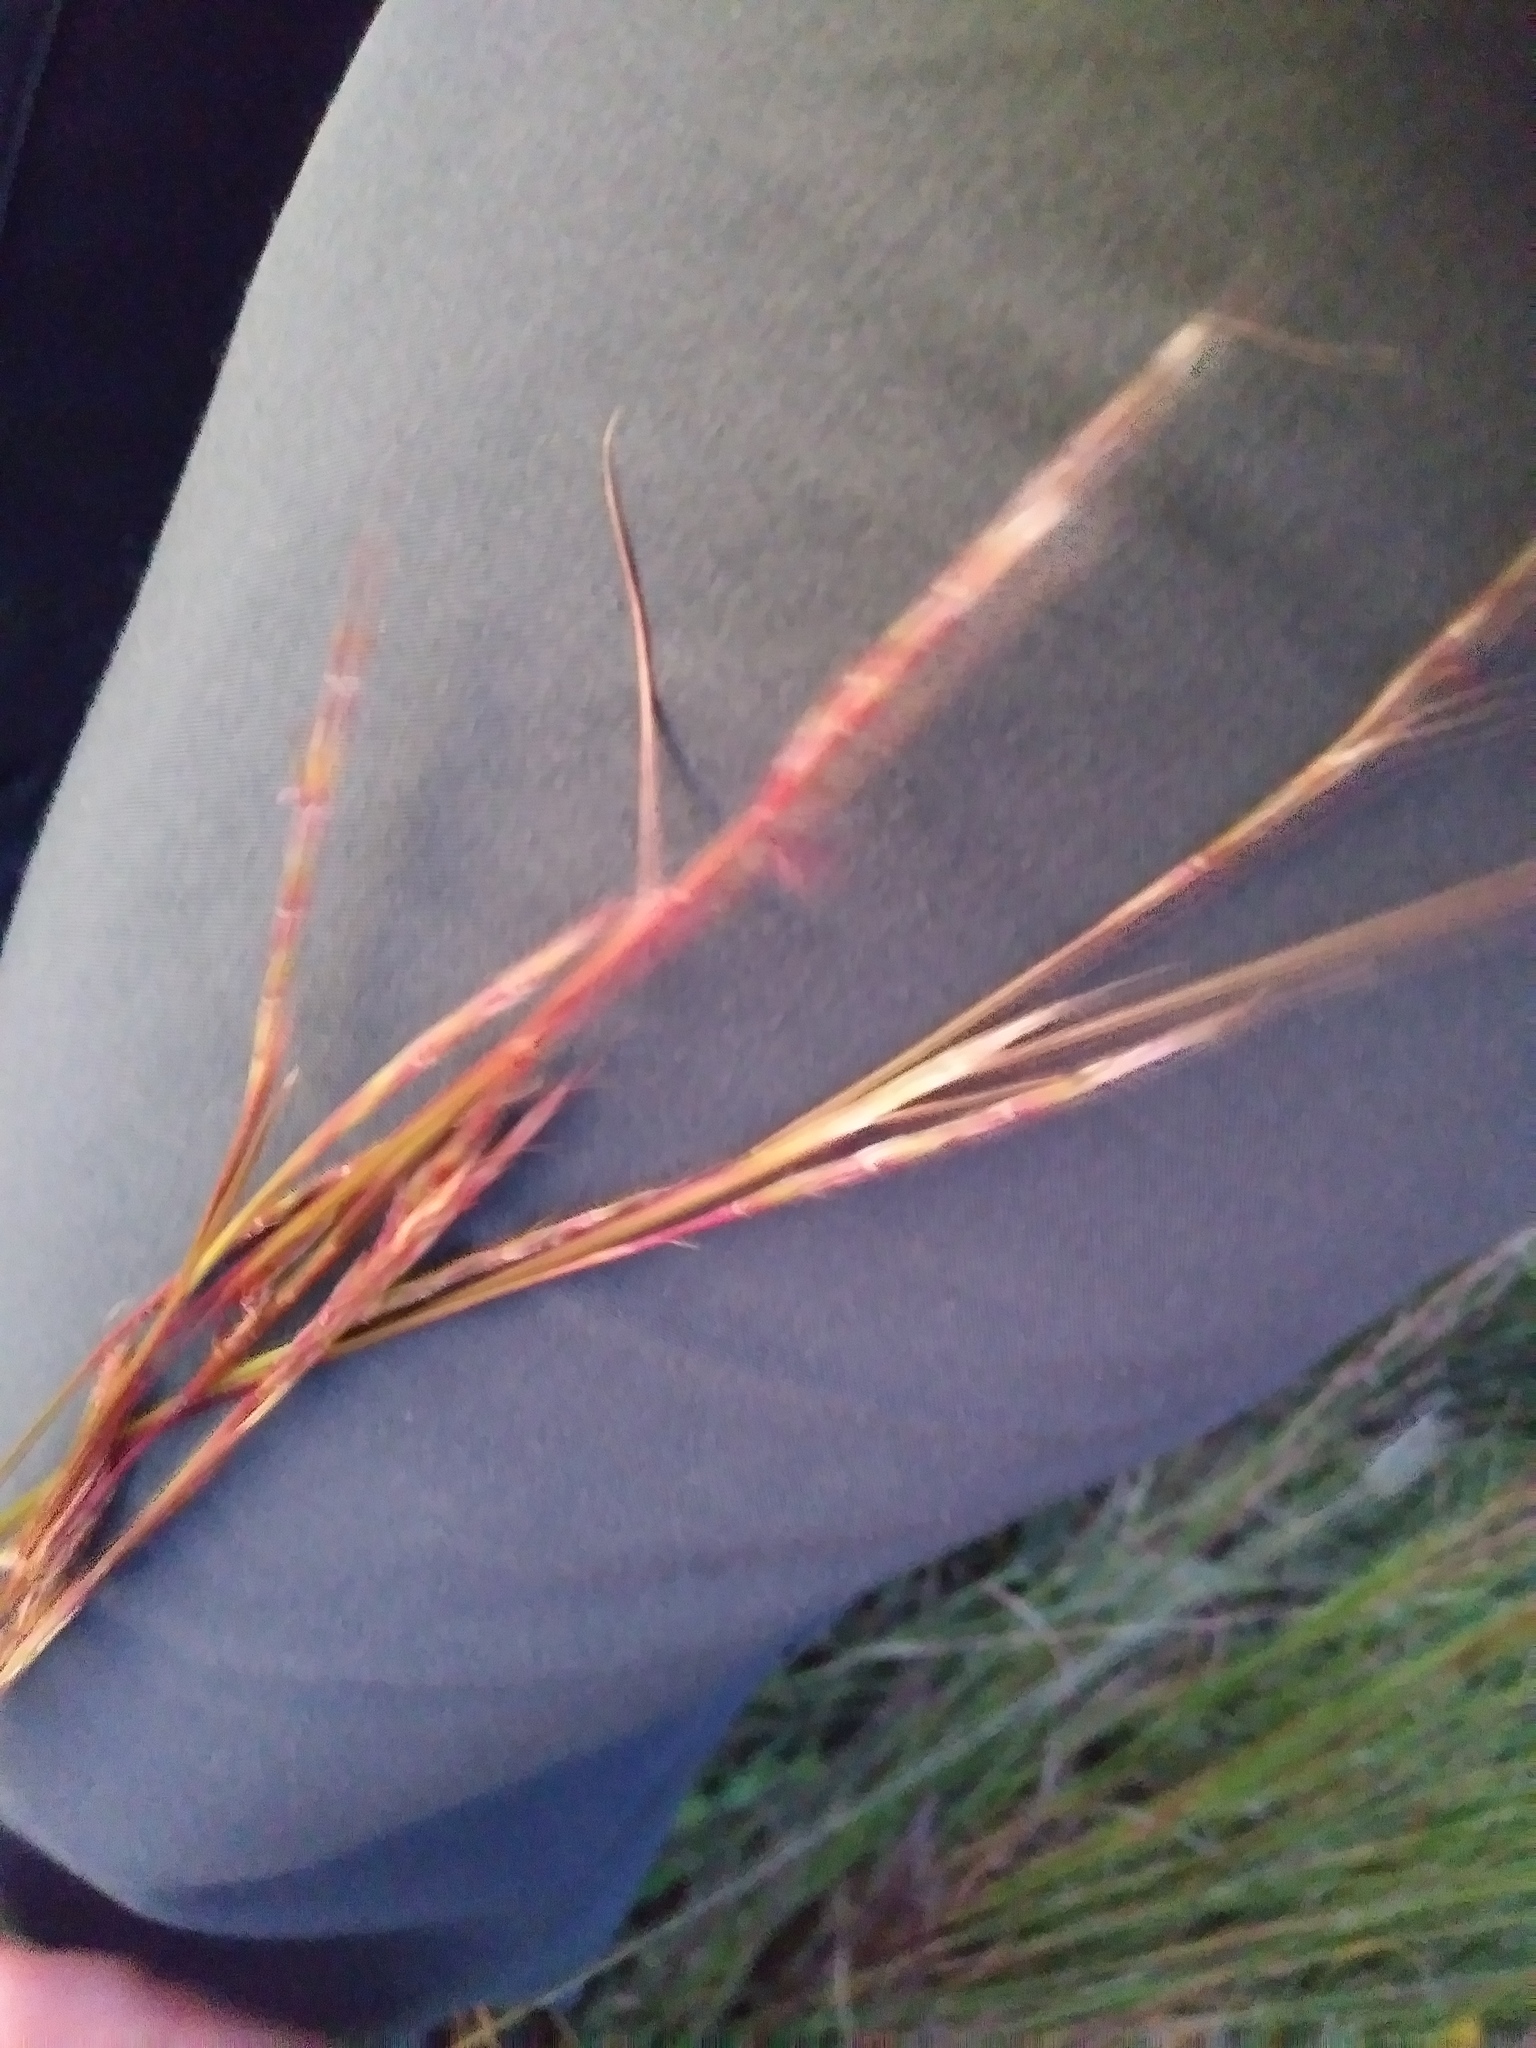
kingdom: Plantae
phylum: Tracheophyta
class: Liliopsida
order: Poales
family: Poaceae
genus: Schizachyrium
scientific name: Schizachyrium scoparium
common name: Little bluestem
